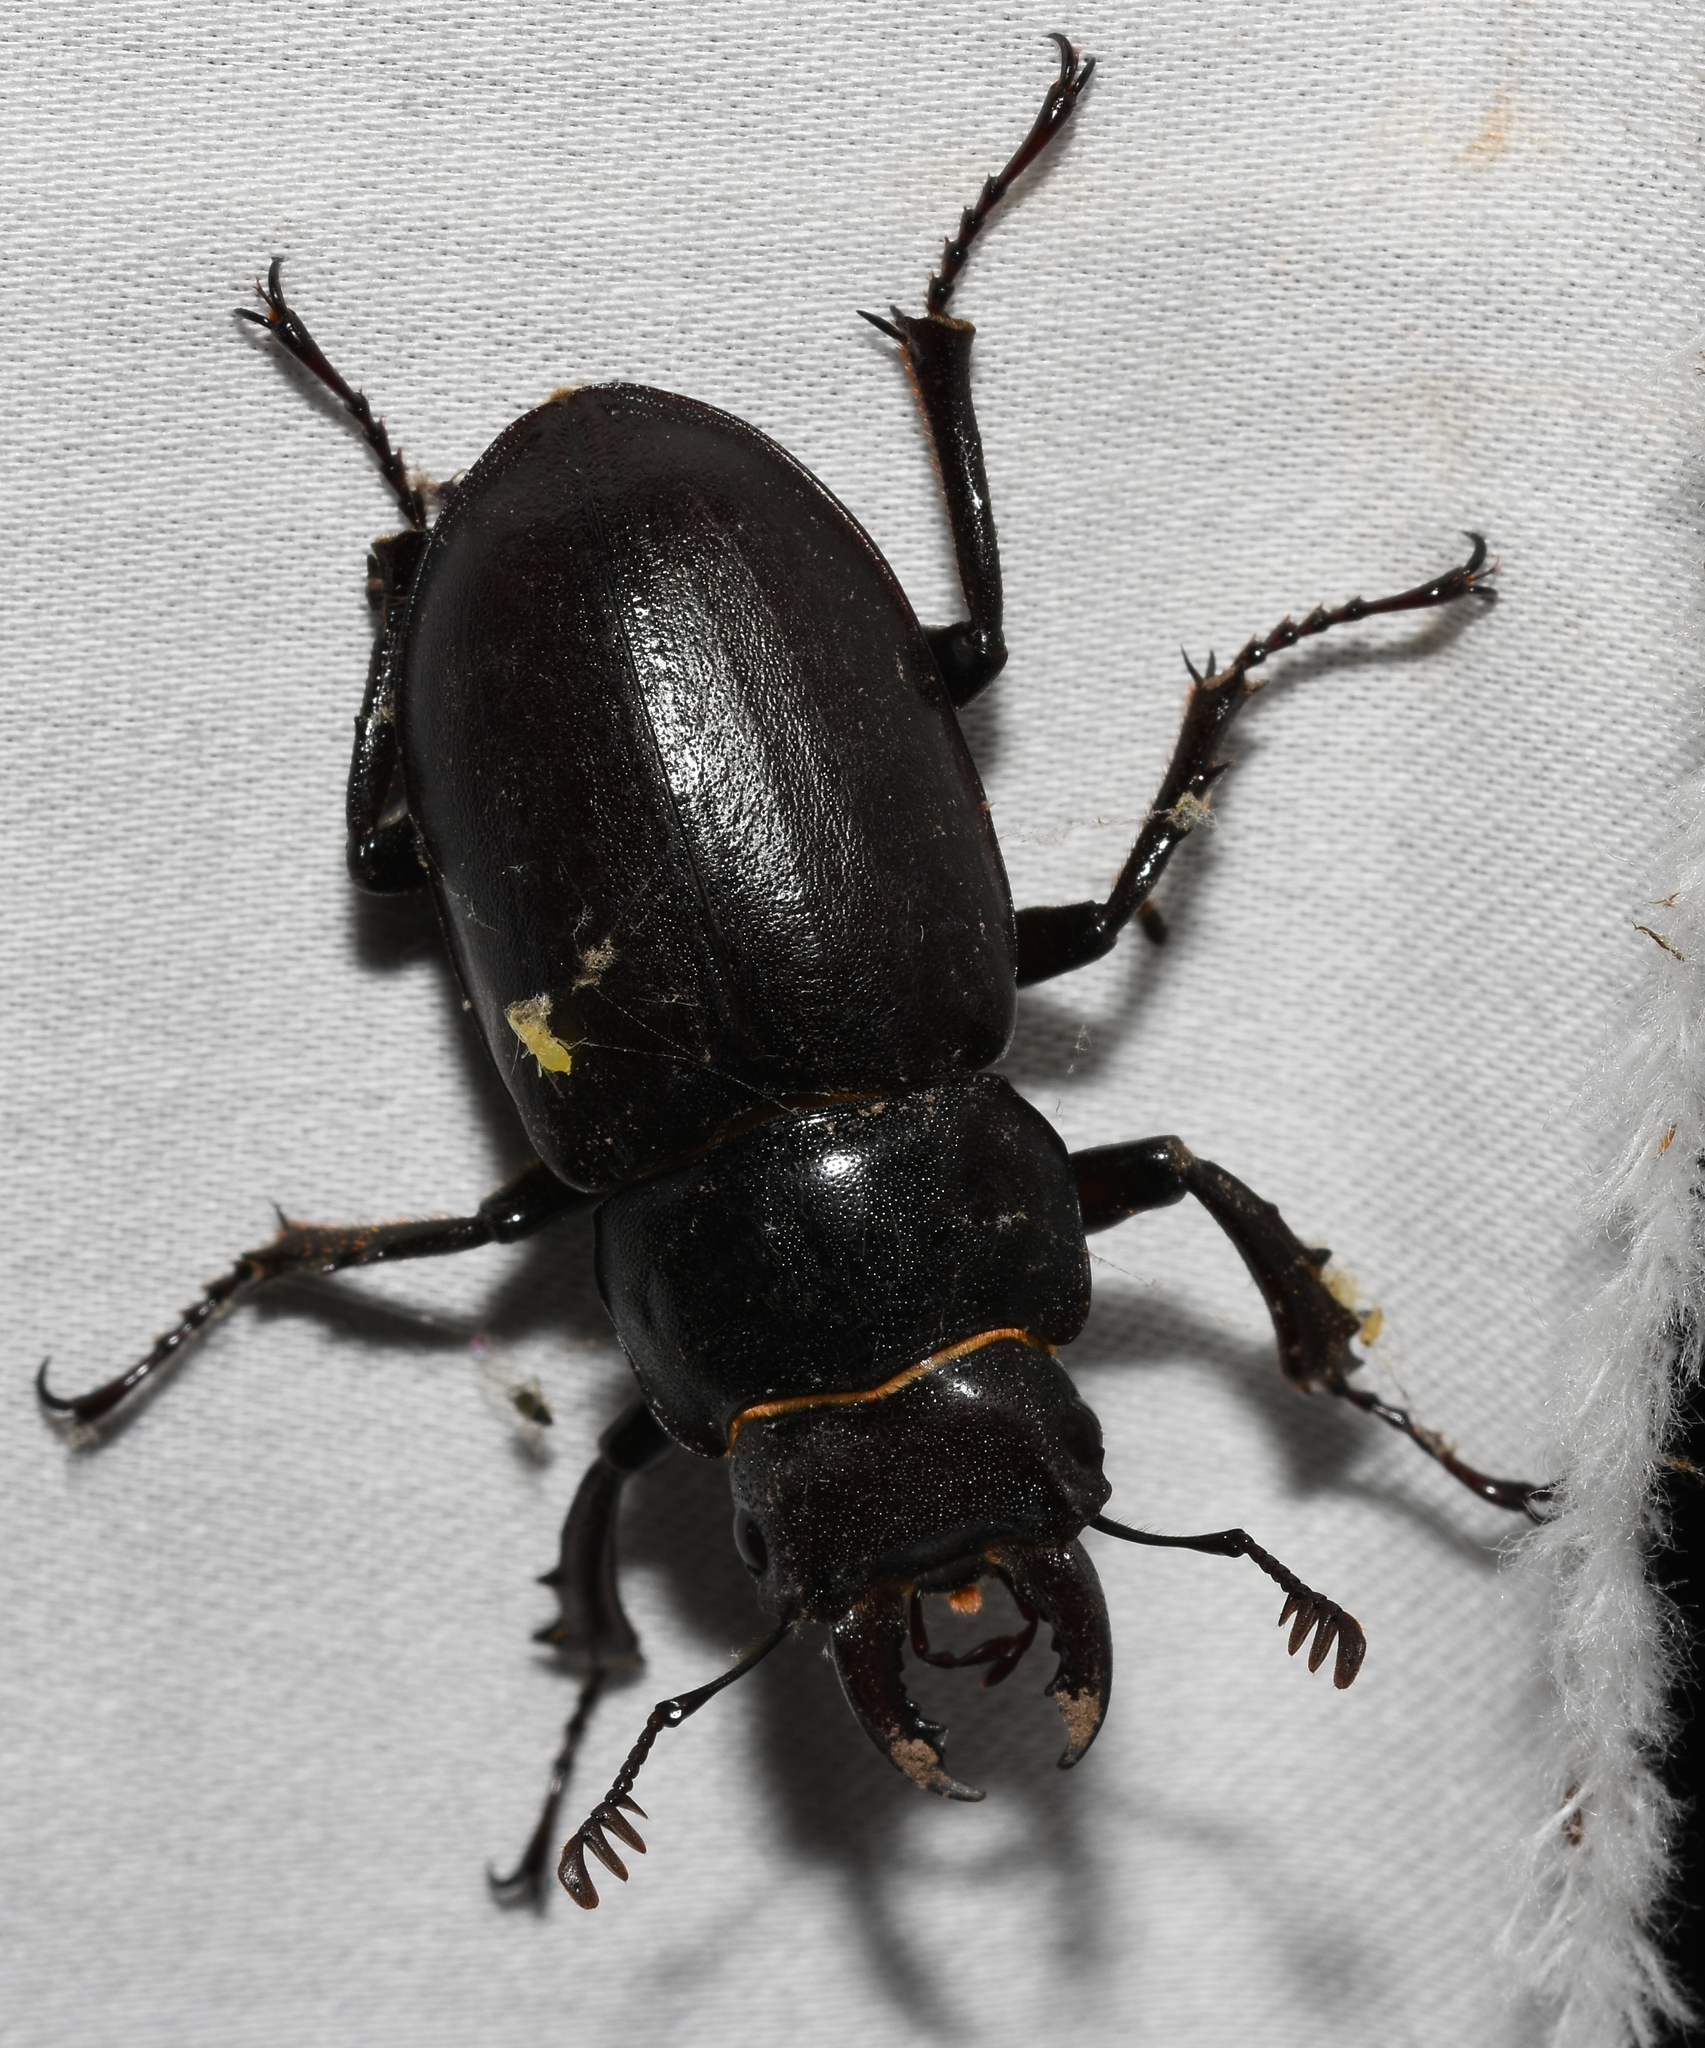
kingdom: Animalia
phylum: Arthropoda
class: Insecta
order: Coleoptera
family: Lucanidae
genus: Lucanus
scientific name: Lucanus placidus
